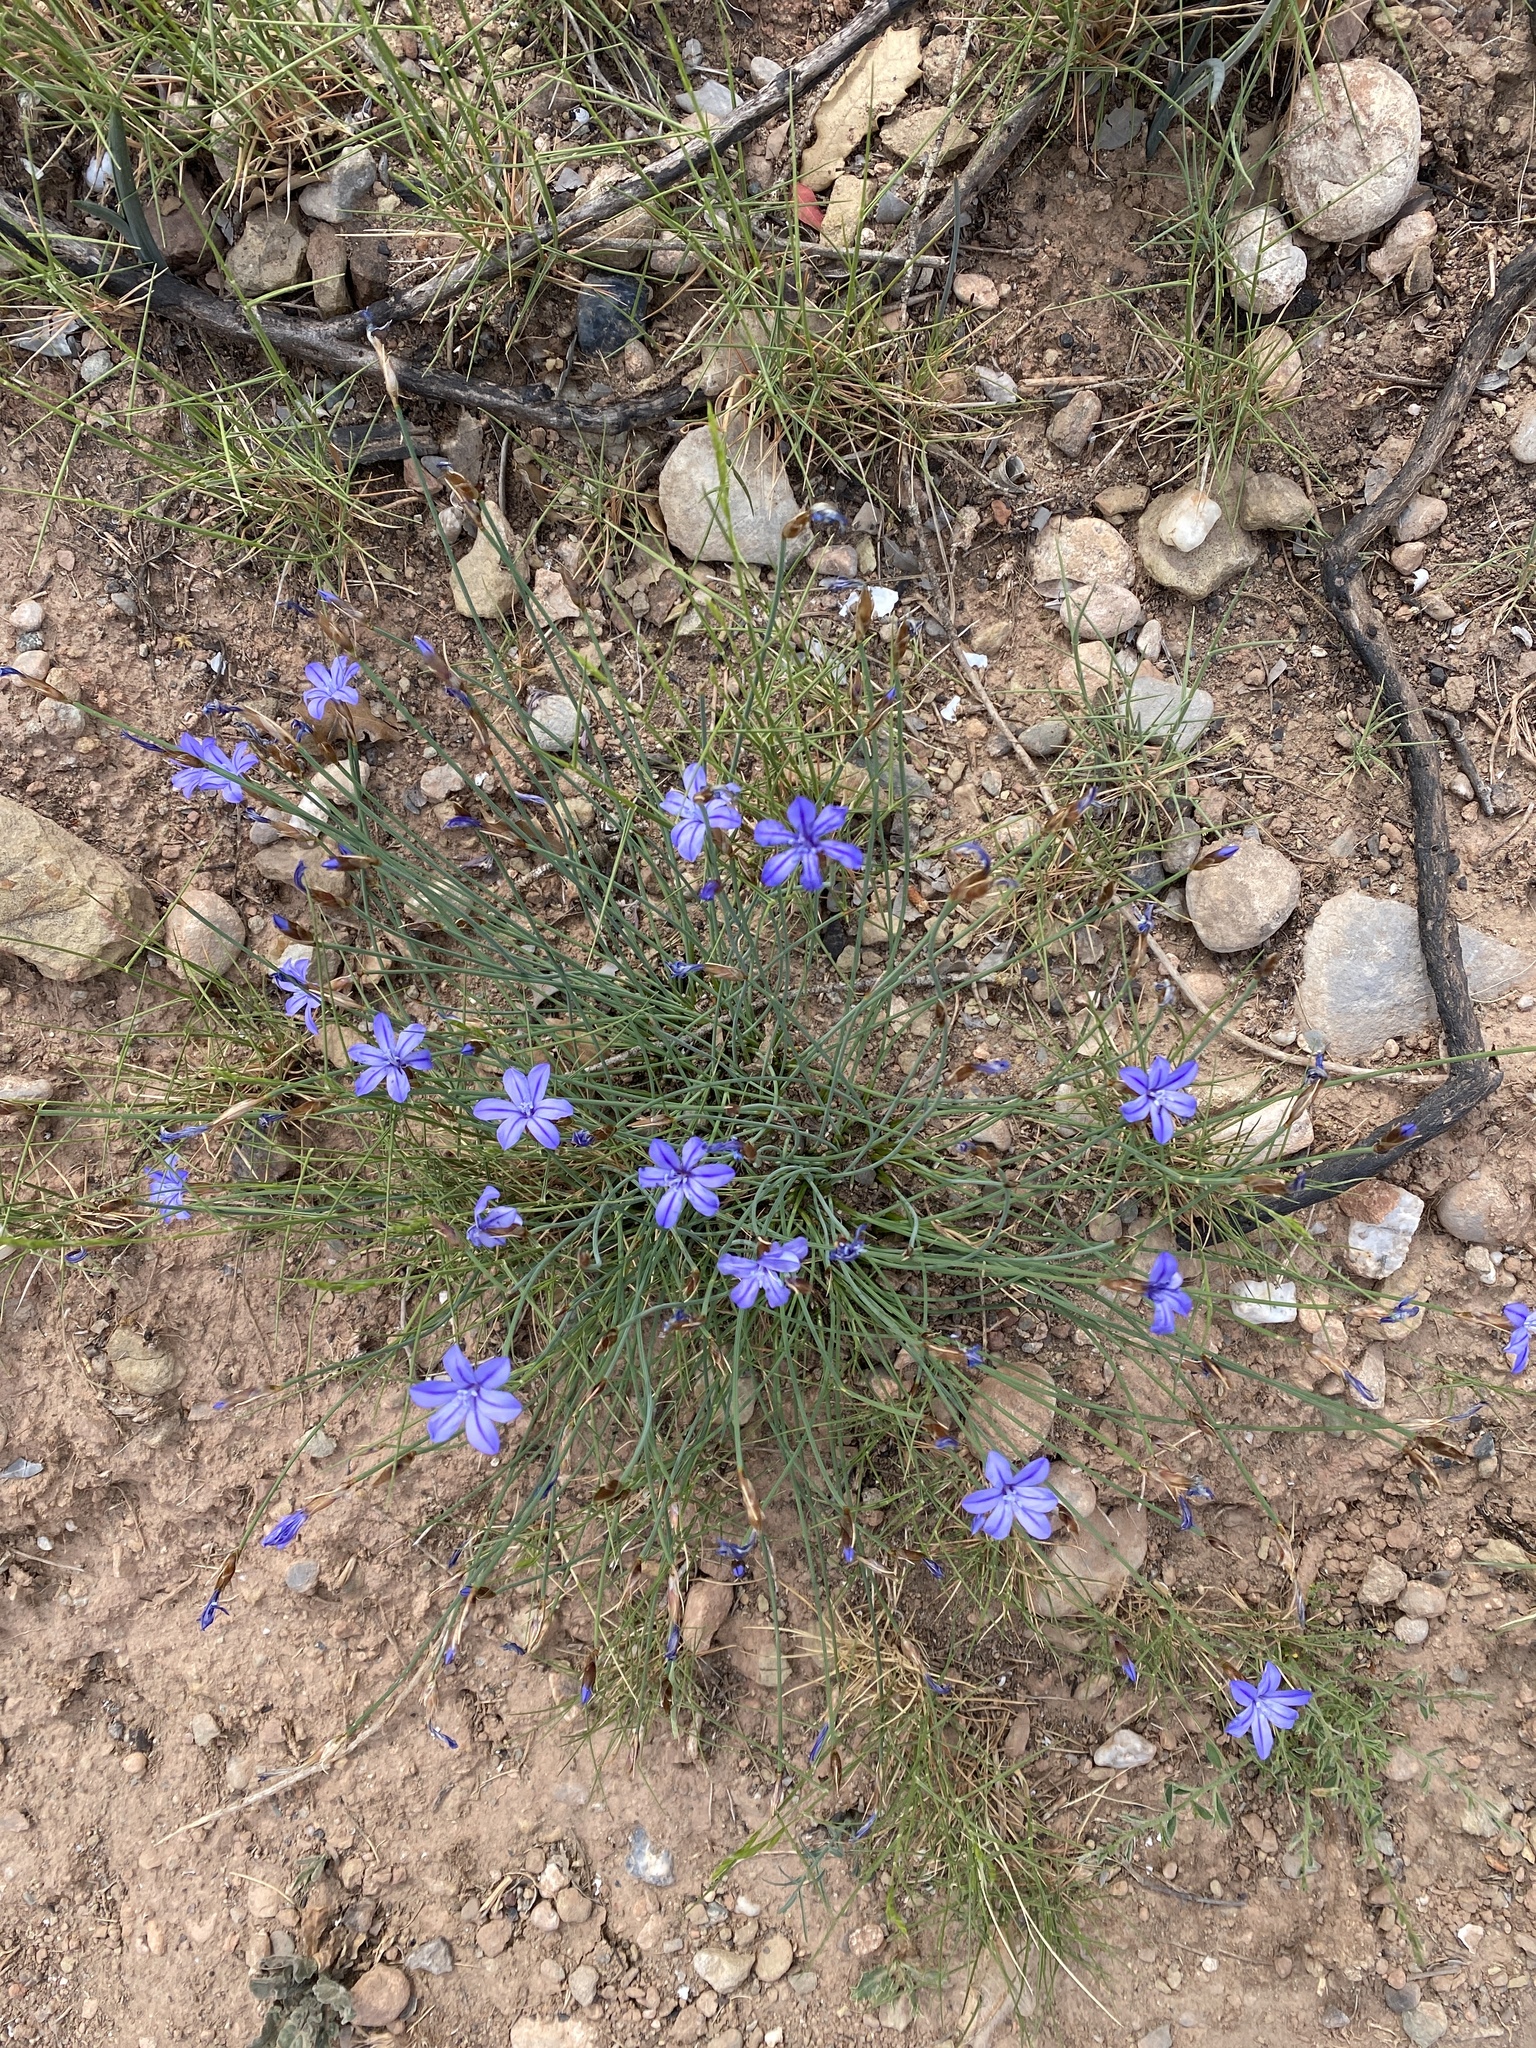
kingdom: Plantae
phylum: Tracheophyta
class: Liliopsida
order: Asparagales
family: Asparagaceae
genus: Aphyllanthes
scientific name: Aphyllanthes monspeliensis
